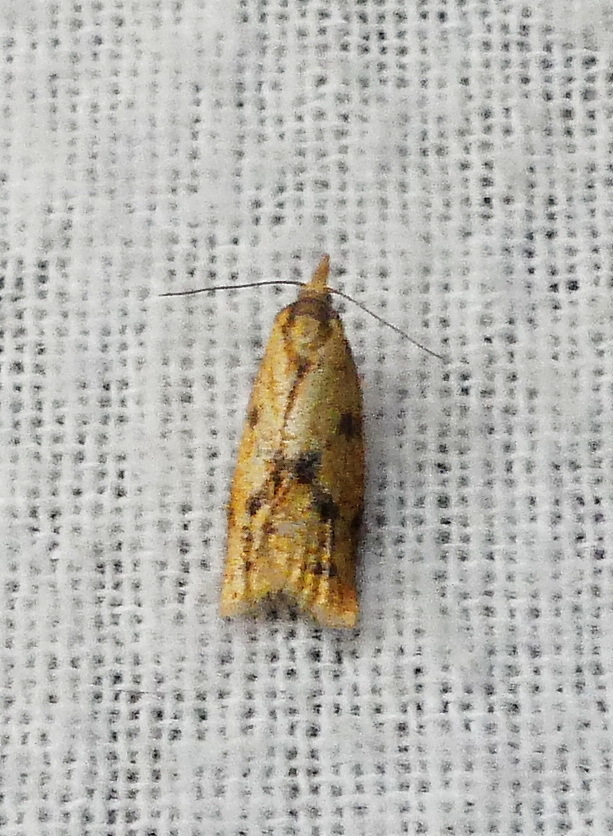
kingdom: Animalia
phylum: Arthropoda
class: Insecta
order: Lepidoptera
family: Tortricidae
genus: Sparganothis
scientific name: Sparganothis sulfureana
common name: Sparganothis fruitworm moth
